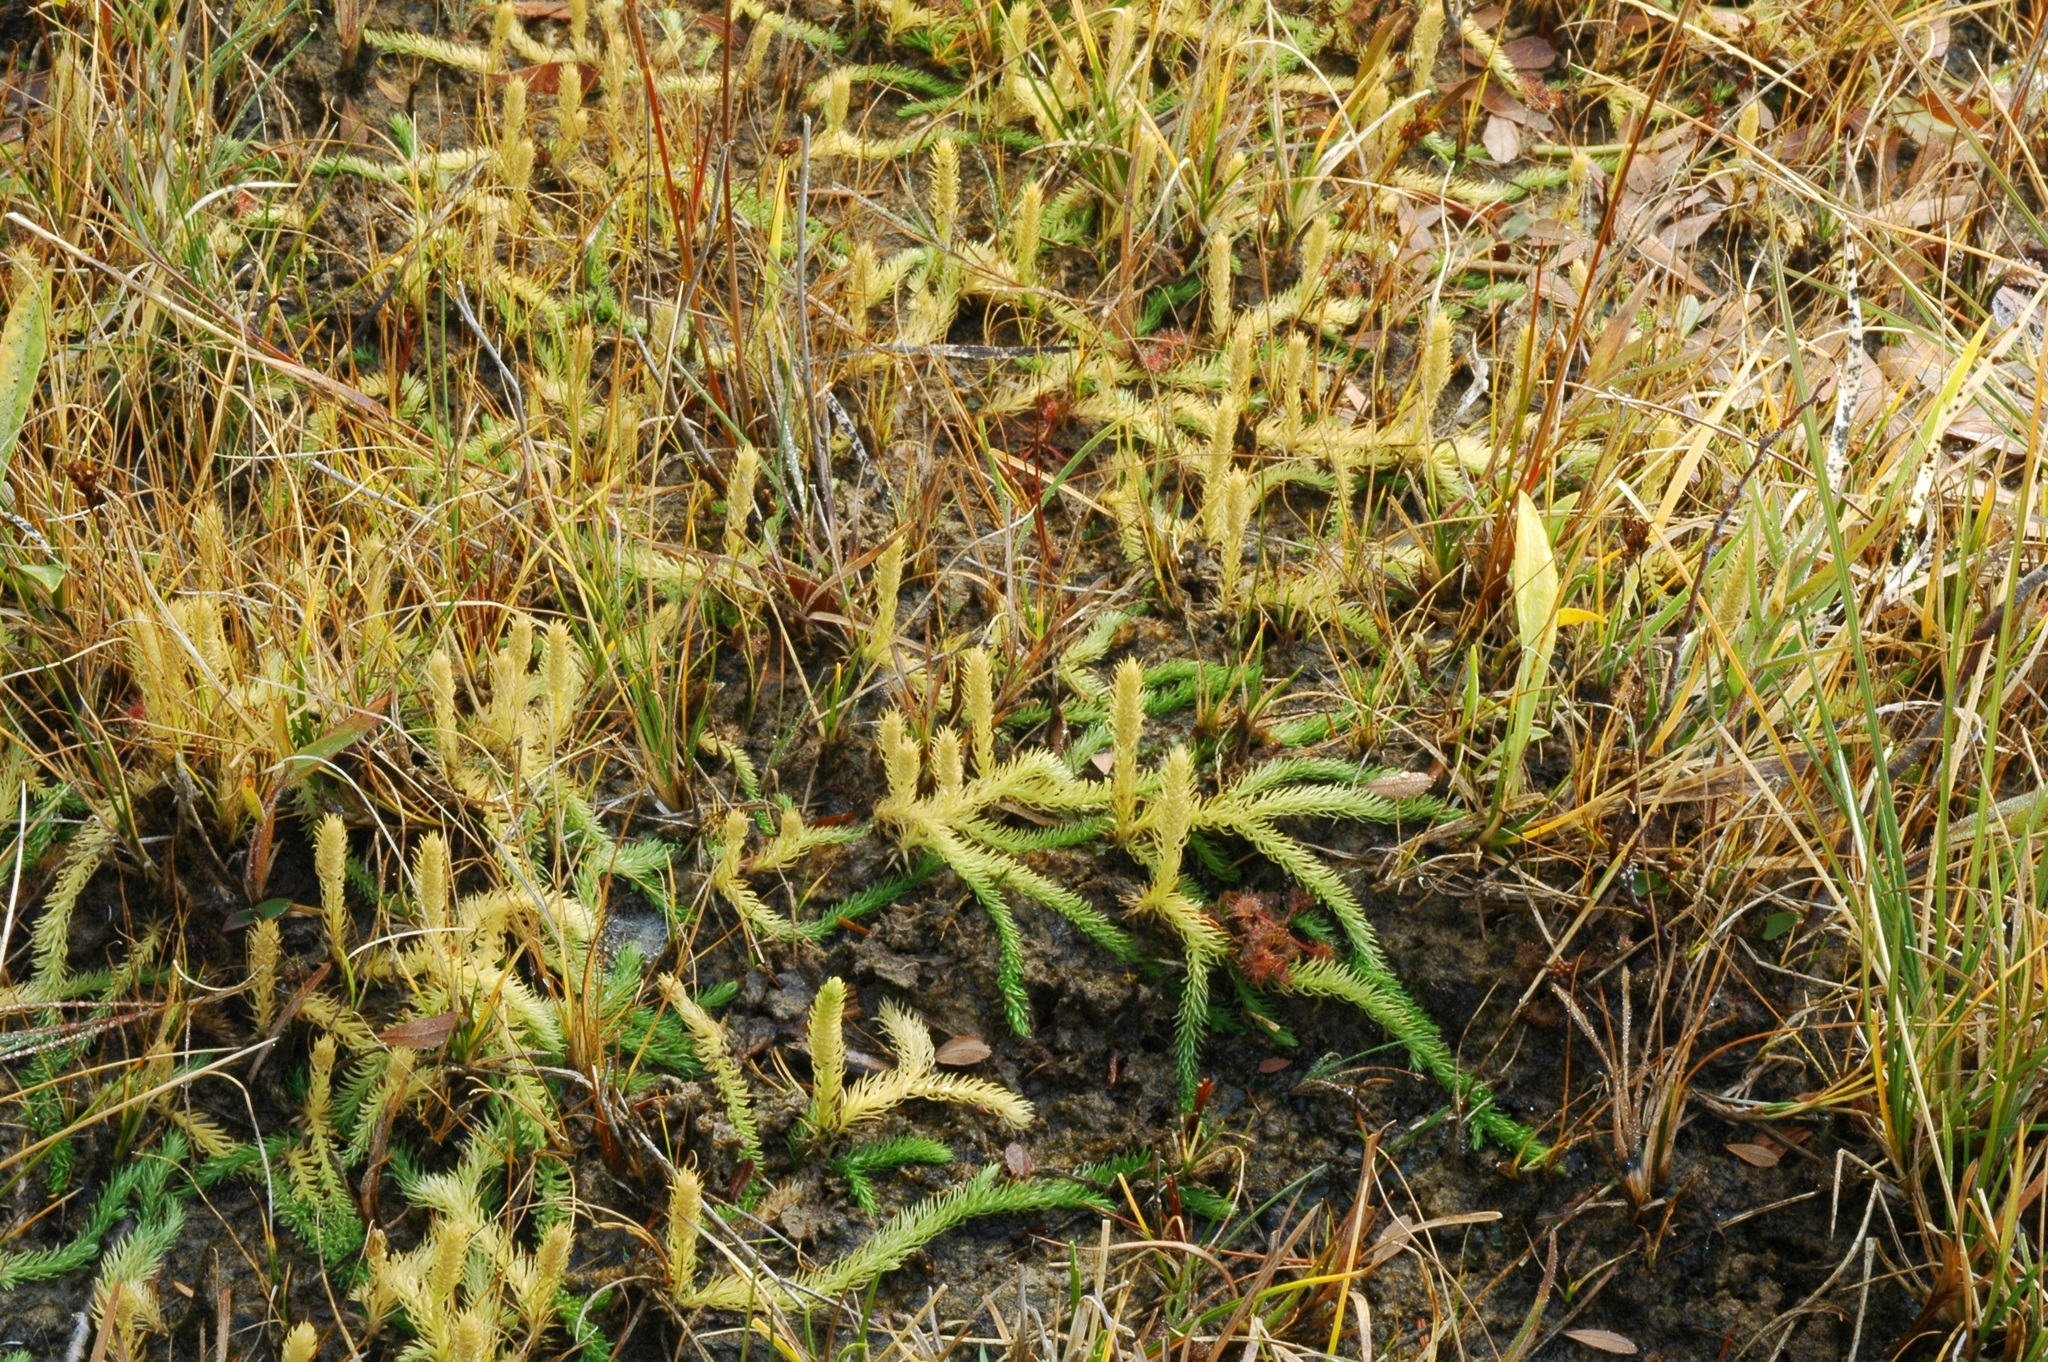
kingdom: Plantae
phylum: Tracheophyta
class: Lycopodiopsida
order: Lycopodiales
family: Lycopodiaceae
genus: Lycopodiella
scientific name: Lycopodiella inundata
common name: Marsh clubmoss
